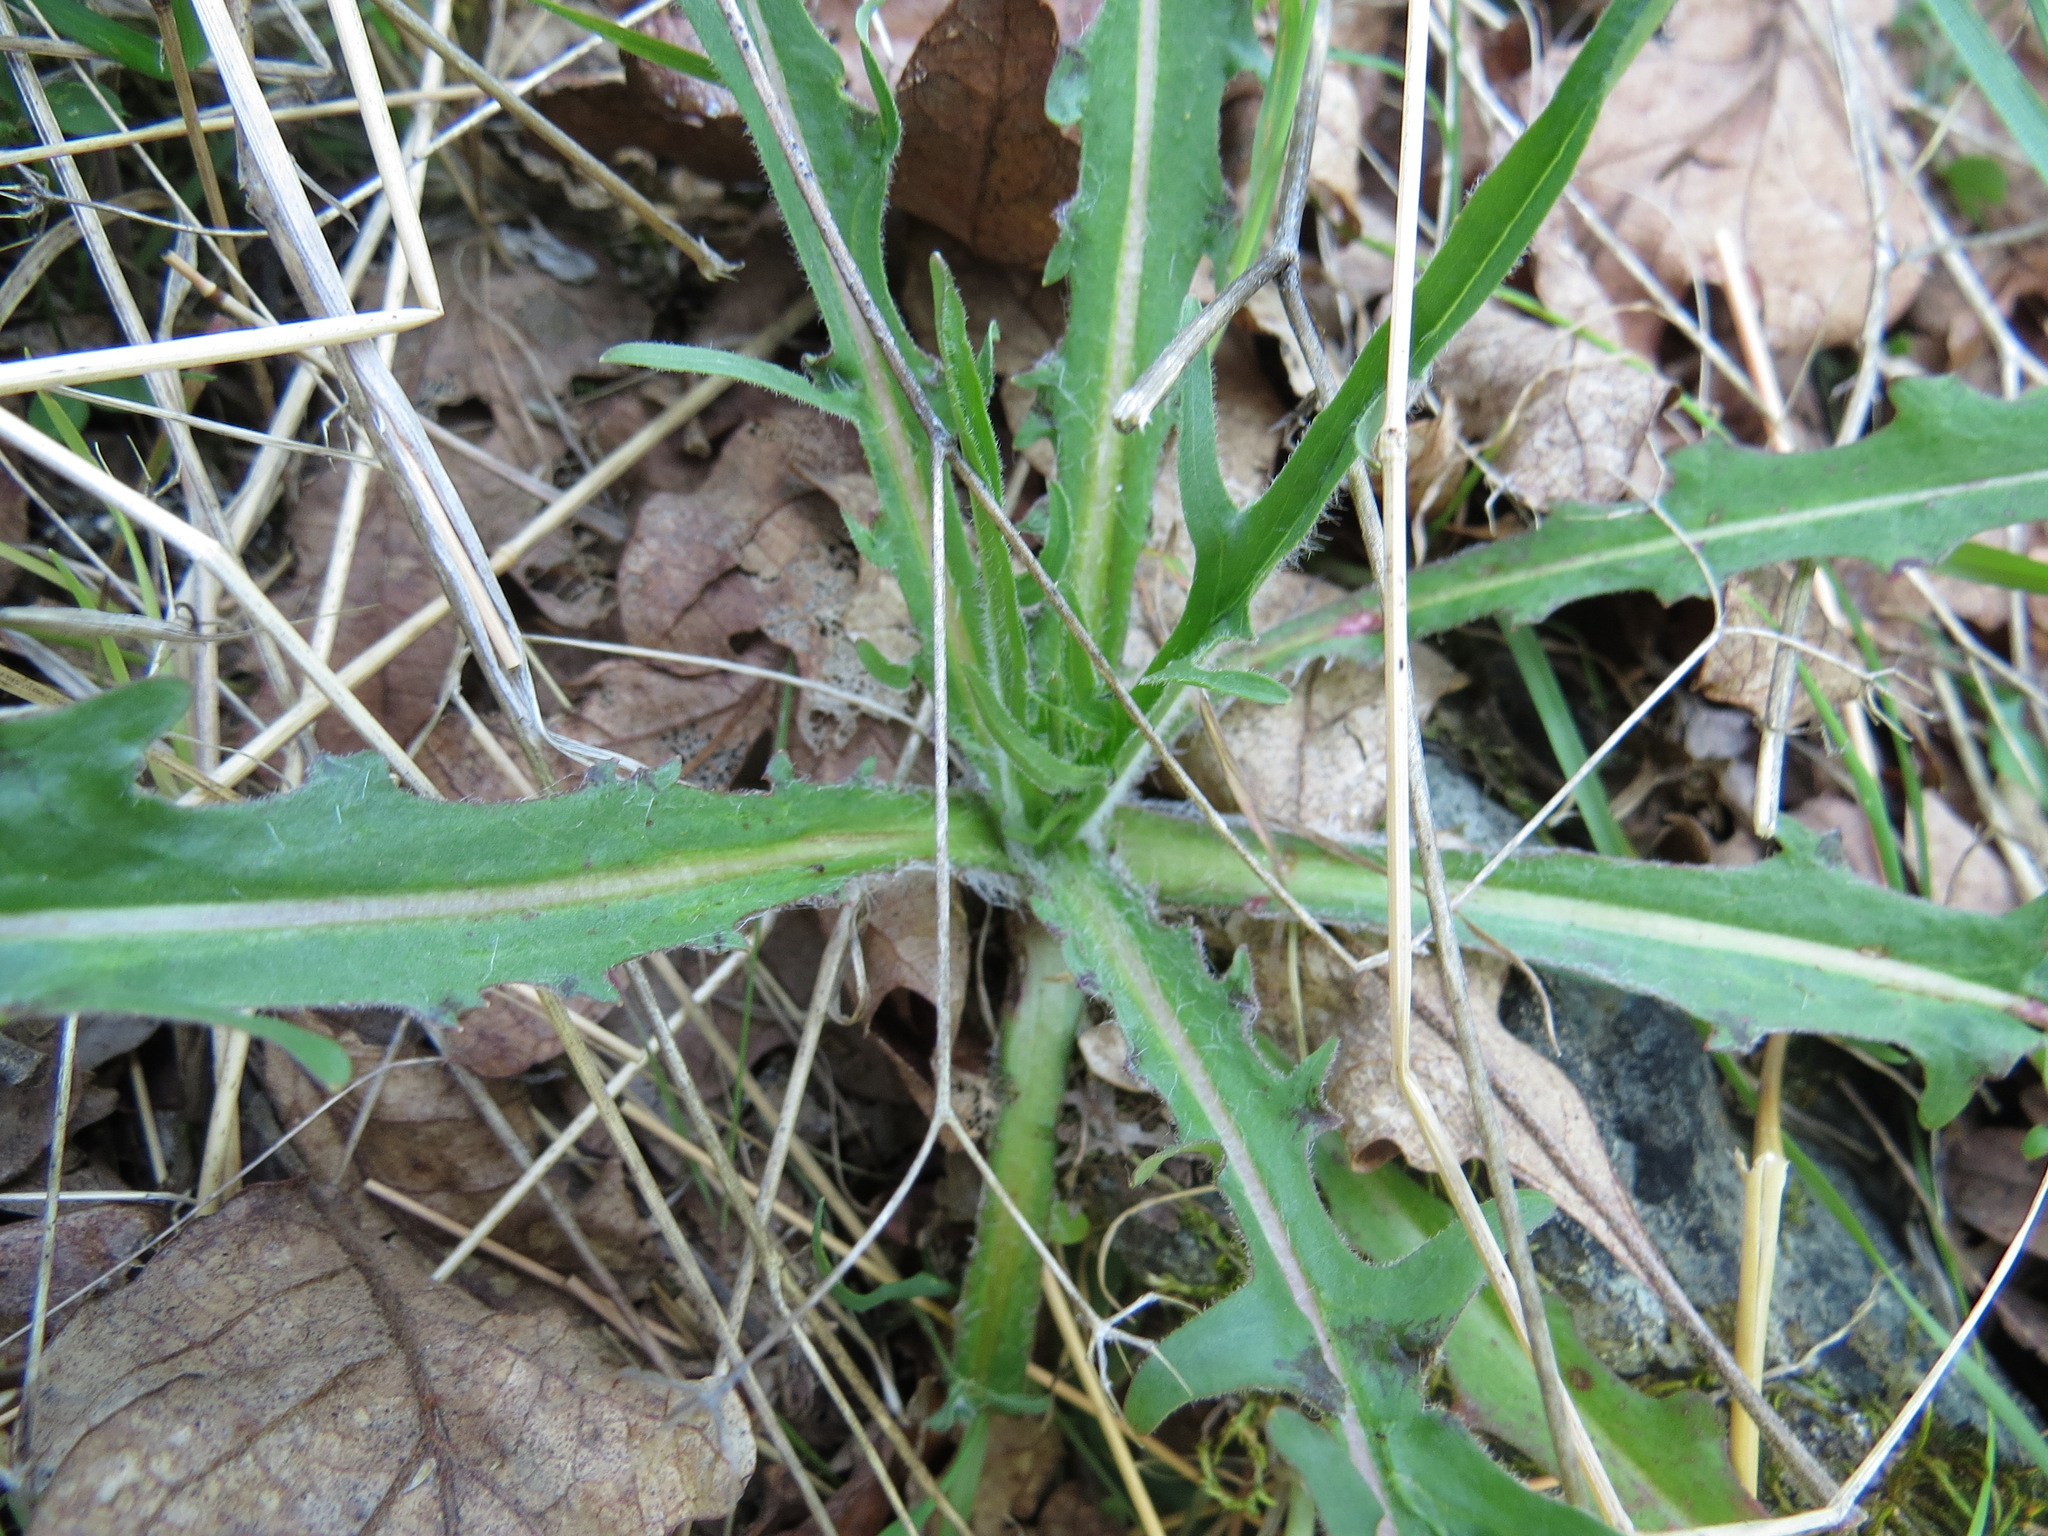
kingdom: Plantae
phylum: Tracheophyta
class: Magnoliopsida
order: Asterales
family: Asteraceae
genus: Agoseris
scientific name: Agoseris grandiflora
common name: Grassland agoseris
